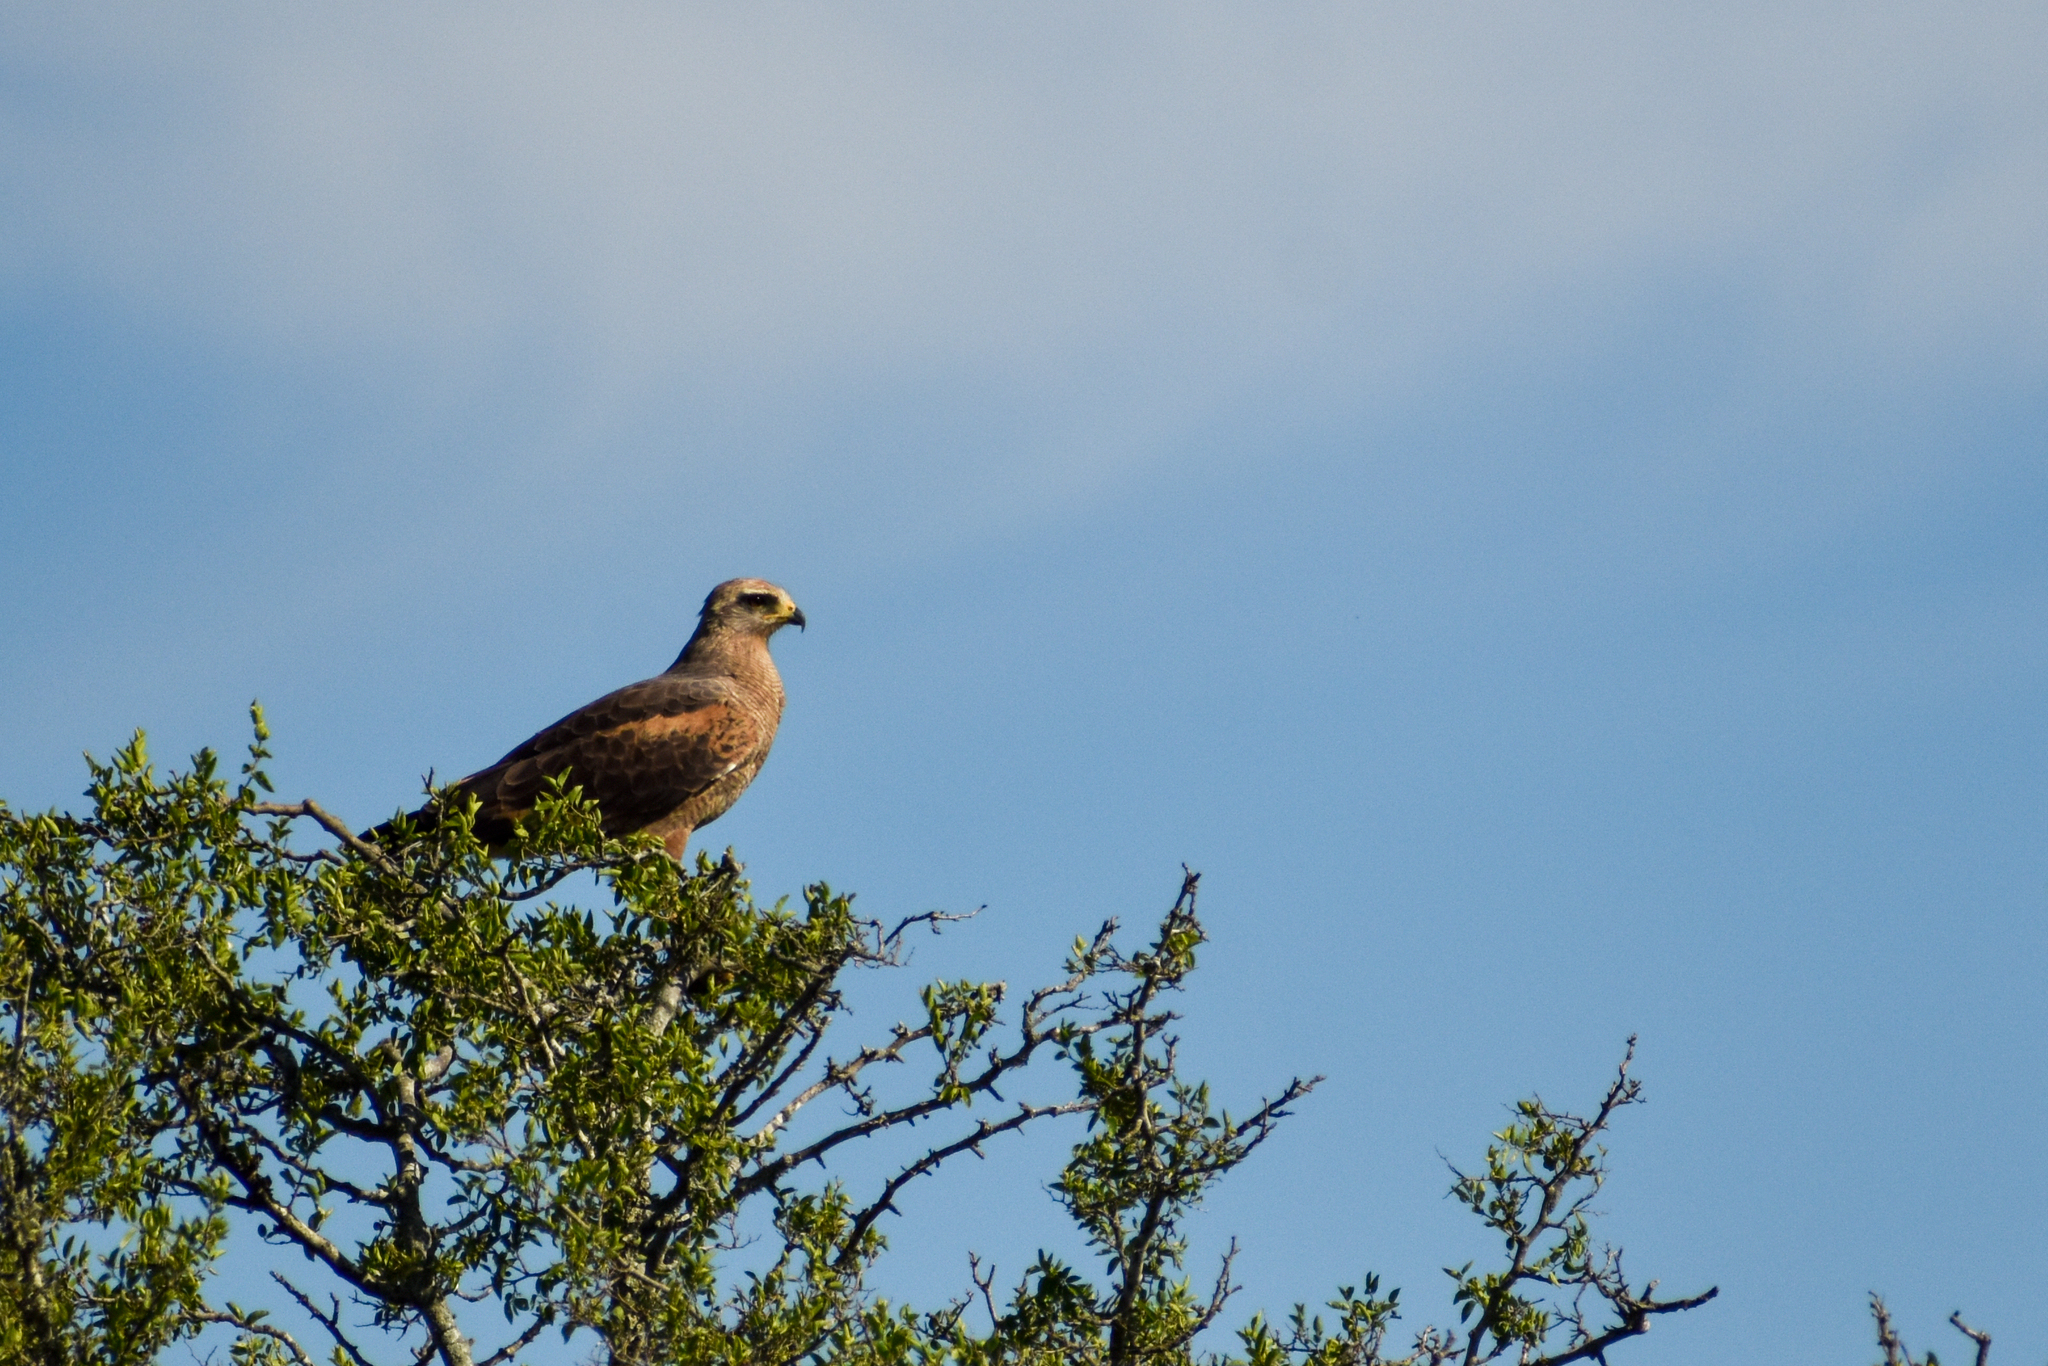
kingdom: Animalia
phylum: Chordata
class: Aves
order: Accipitriformes
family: Accipitridae
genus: Buteogallus
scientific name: Buteogallus meridionalis
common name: Savanna hawk
